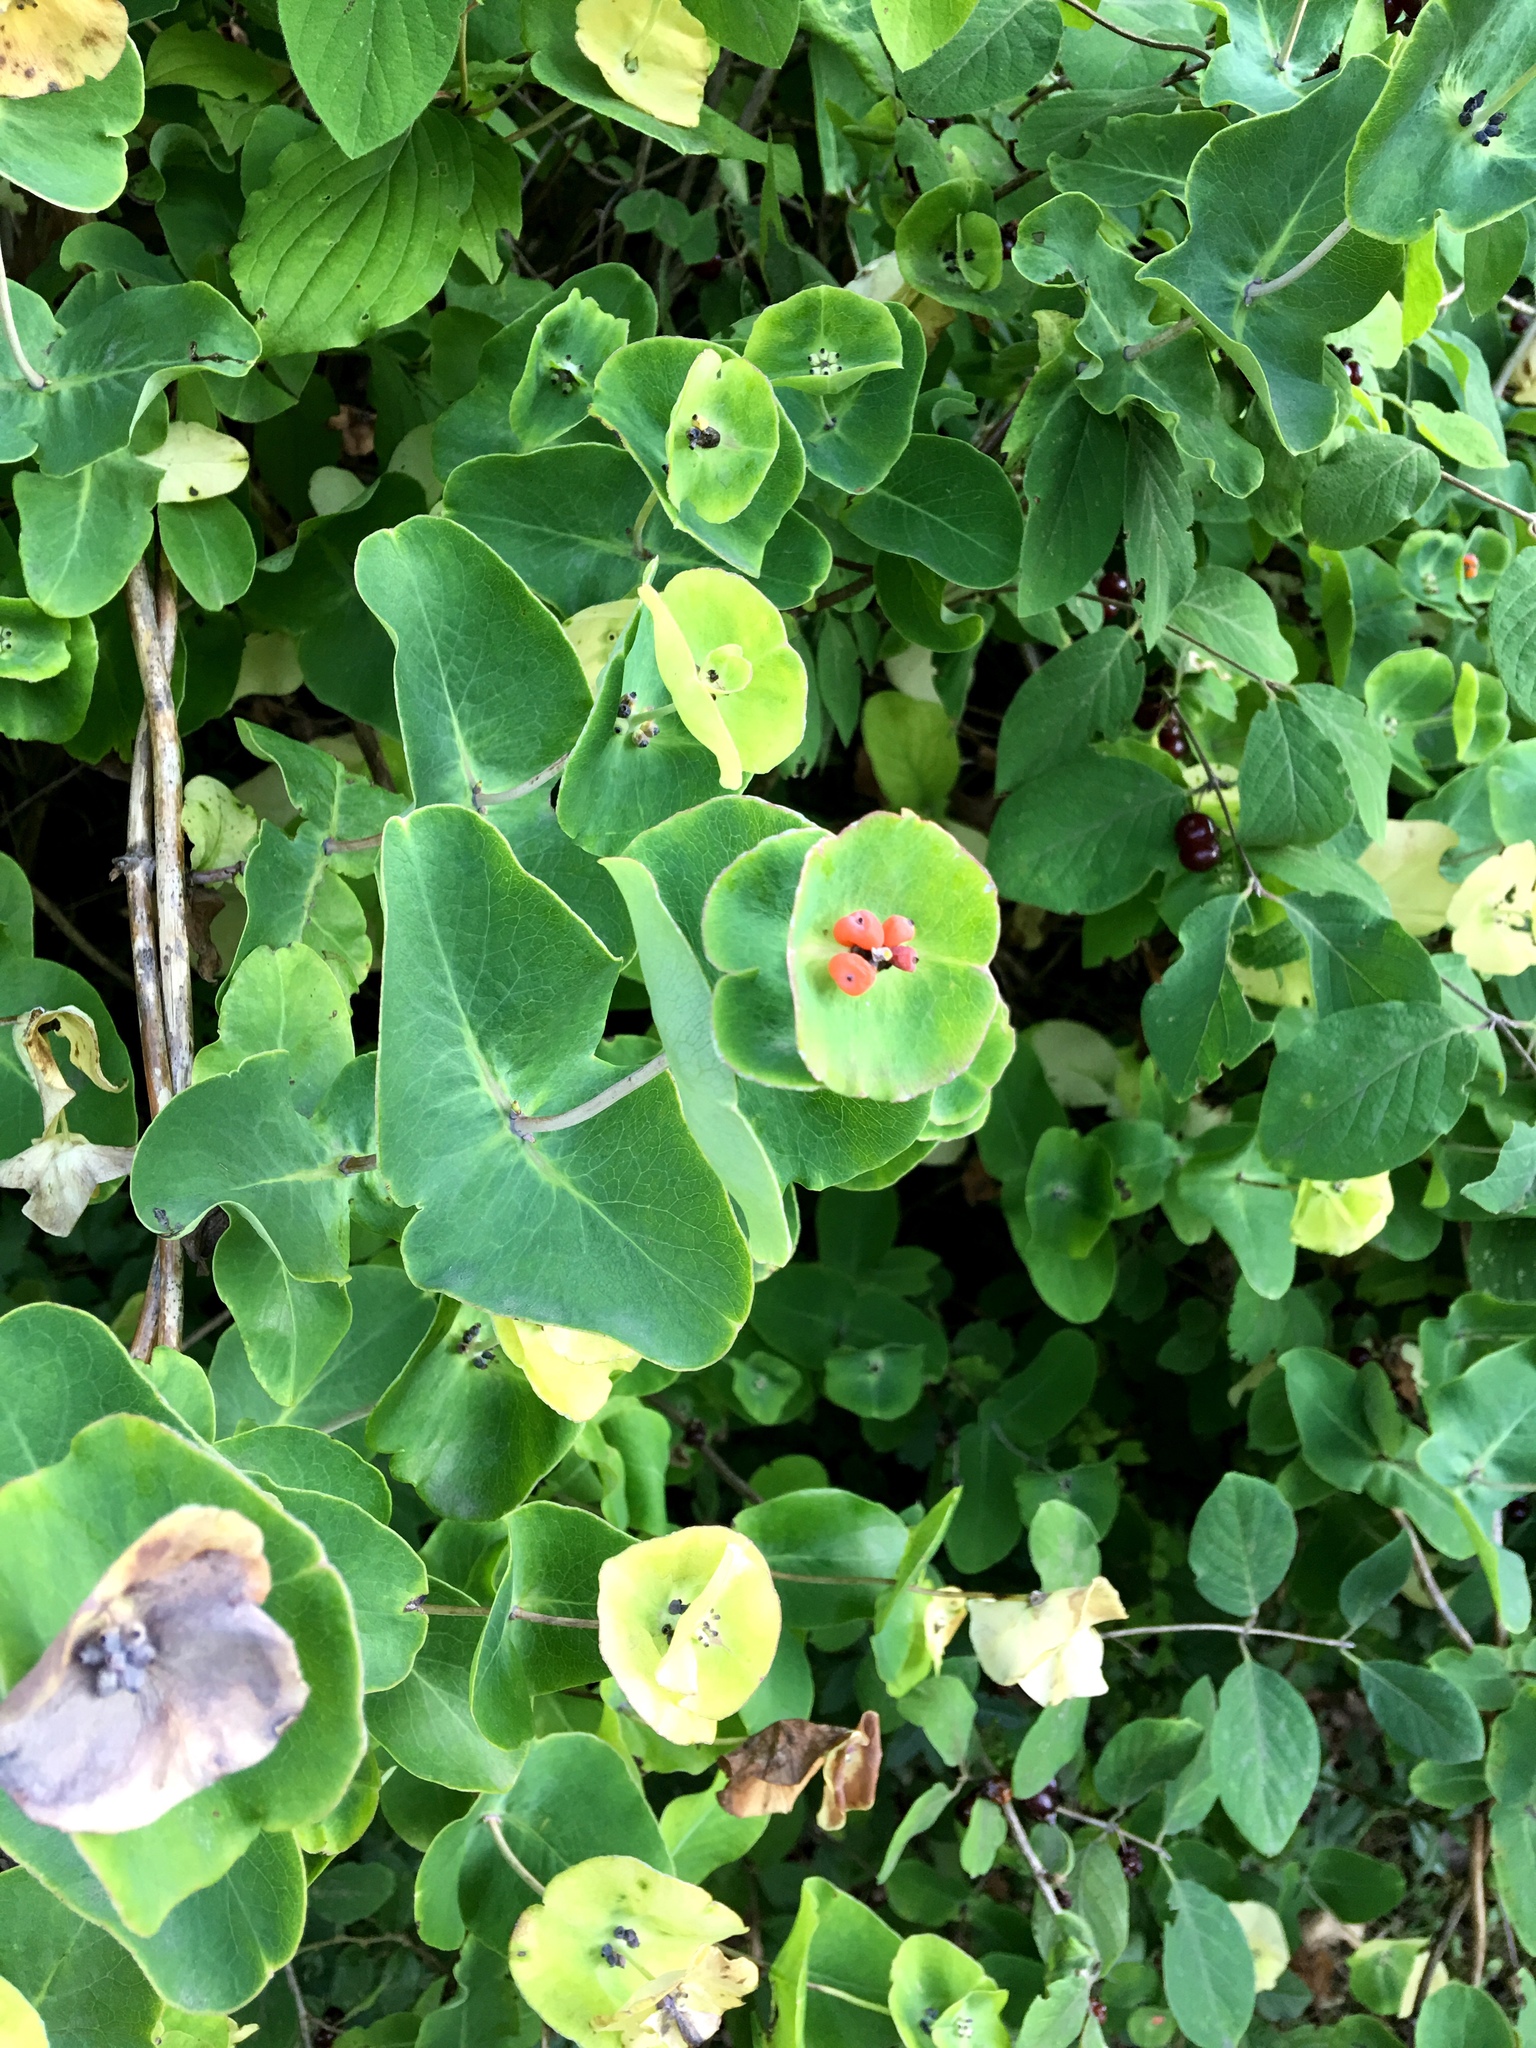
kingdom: Plantae
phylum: Tracheophyta
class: Magnoliopsida
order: Dipsacales
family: Caprifoliaceae
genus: Lonicera
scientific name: Lonicera caprifolium
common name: Perfoliate honeysuckle
